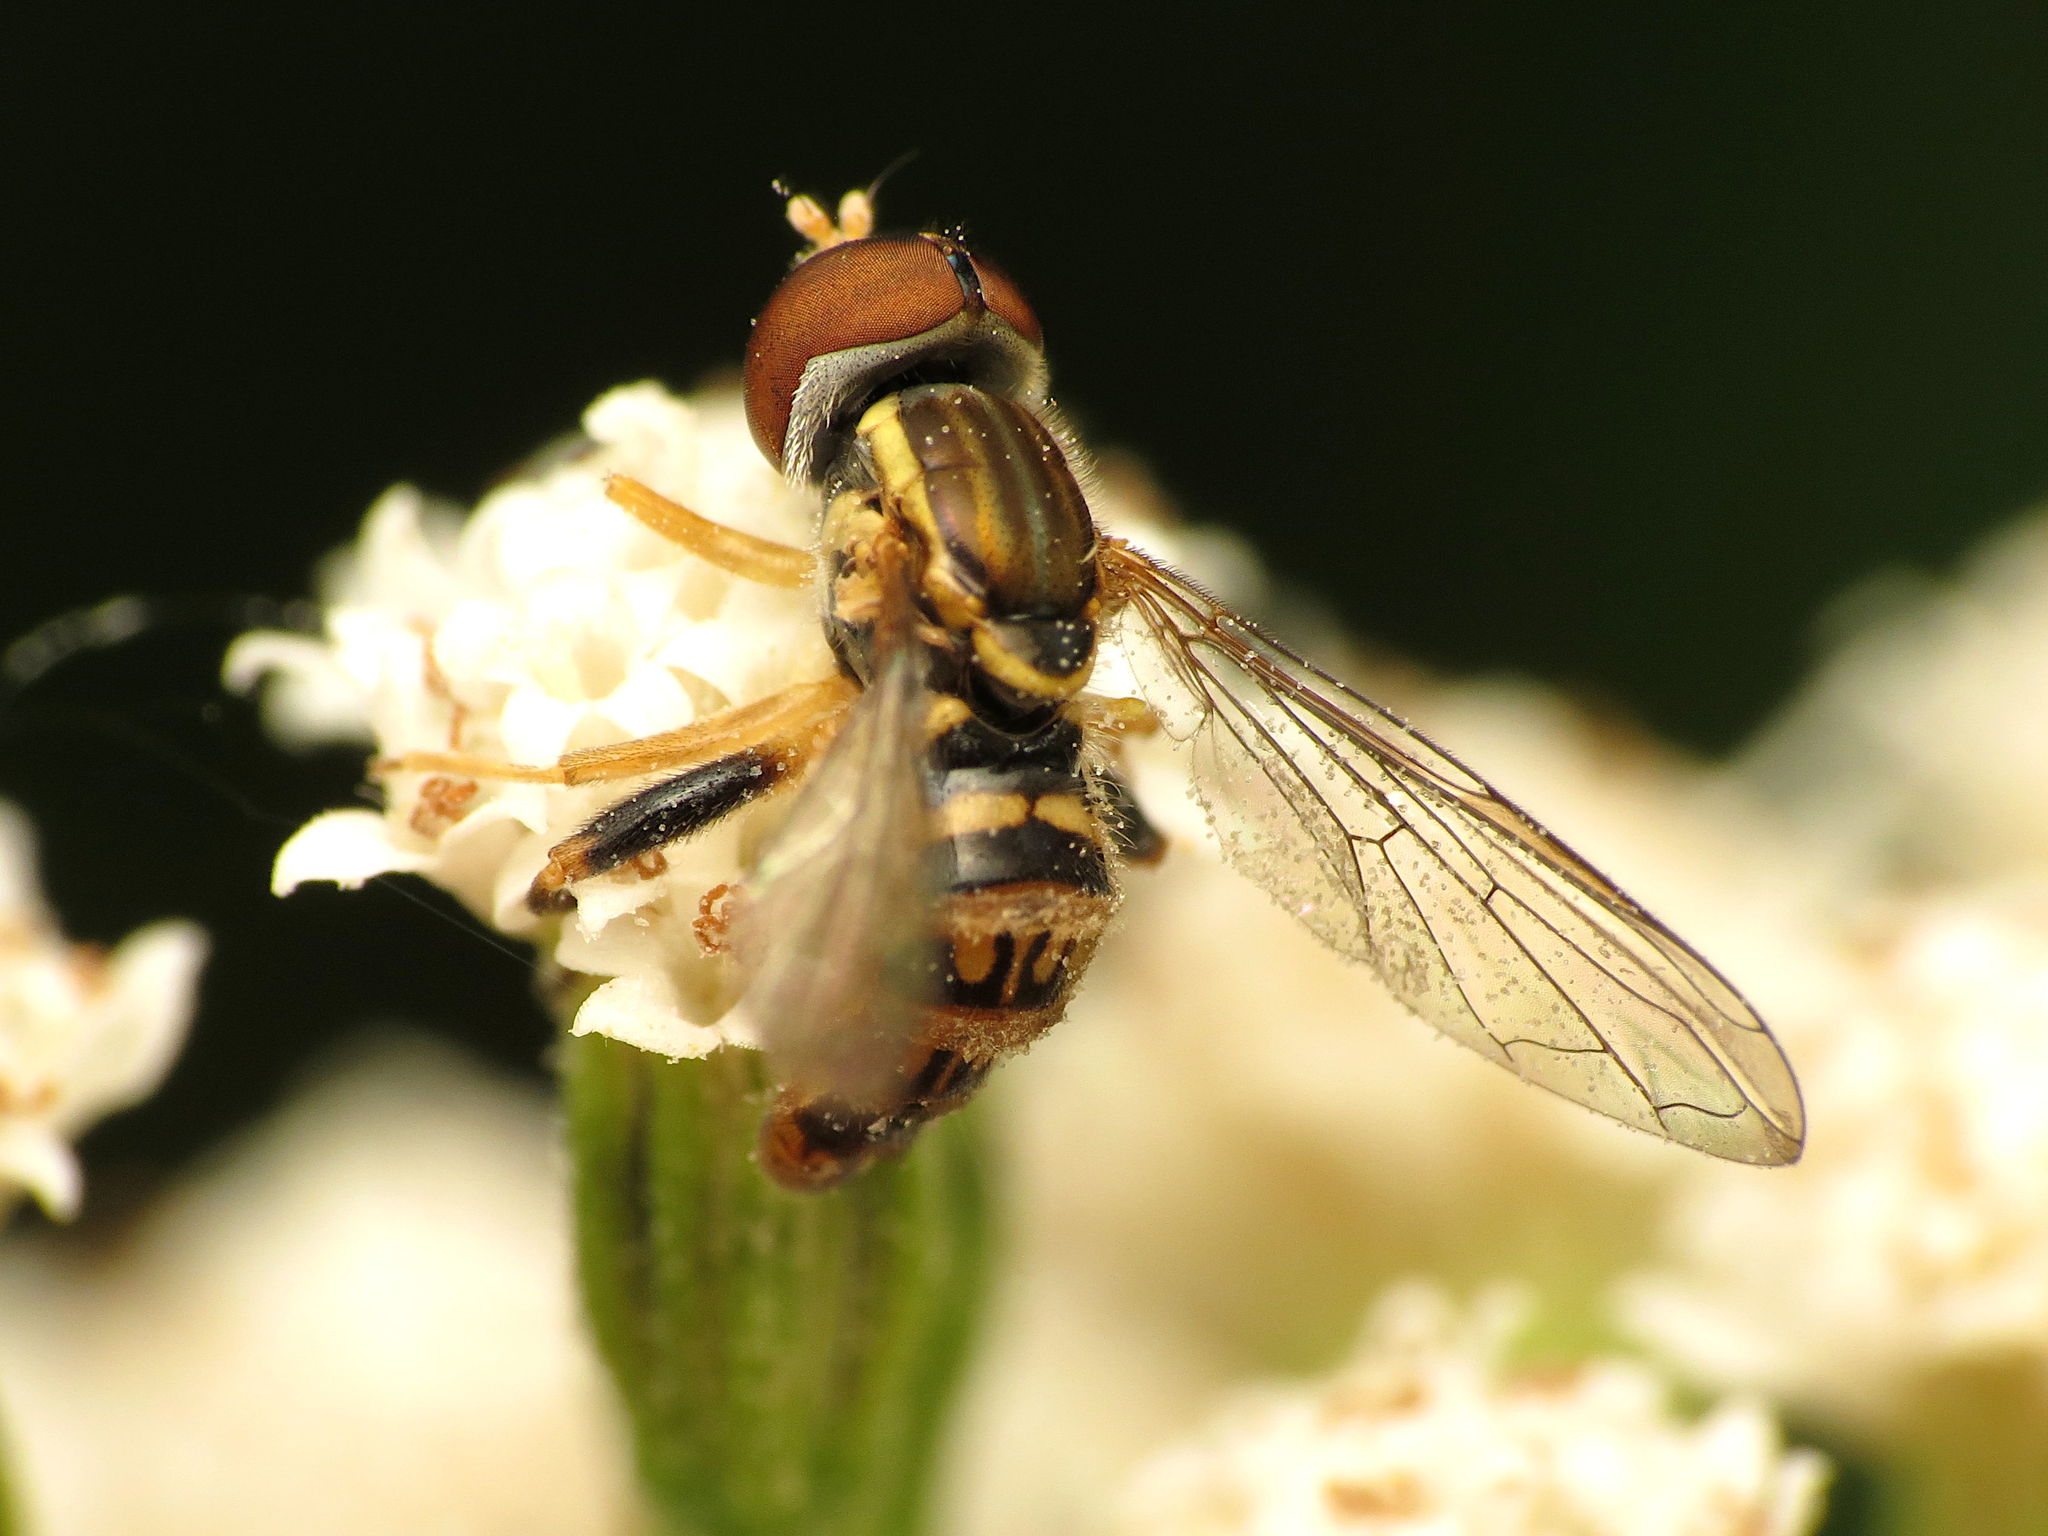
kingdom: Animalia
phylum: Arthropoda
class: Insecta
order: Diptera
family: Syrphidae
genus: Toxomerus
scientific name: Toxomerus geminatus
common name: Eastern calligrapher
